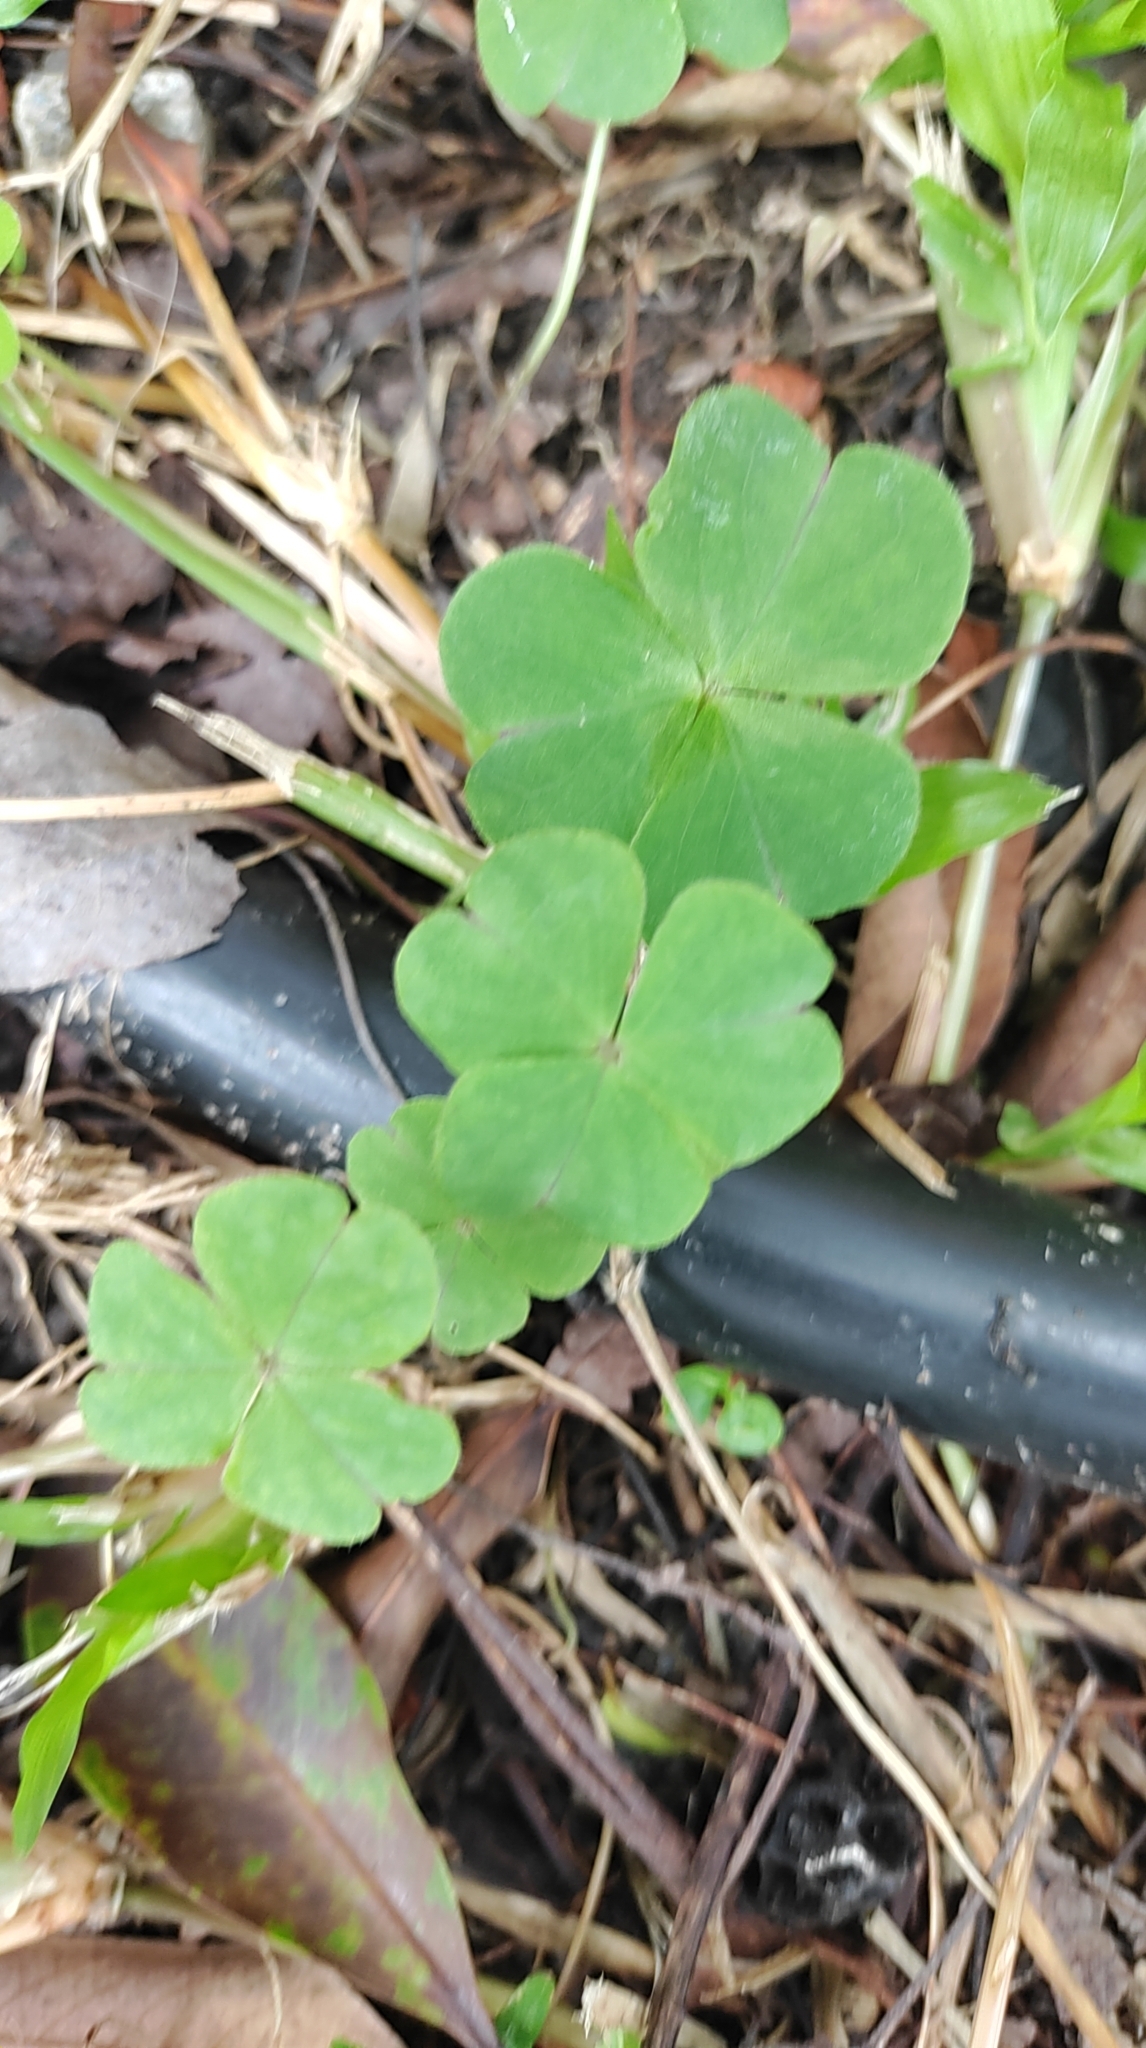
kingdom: Plantae
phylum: Tracheophyta
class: Magnoliopsida
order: Oxalidales
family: Oxalidaceae
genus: Oxalis
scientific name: Oxalis debilis
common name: Large-flowered pink-sorrel
